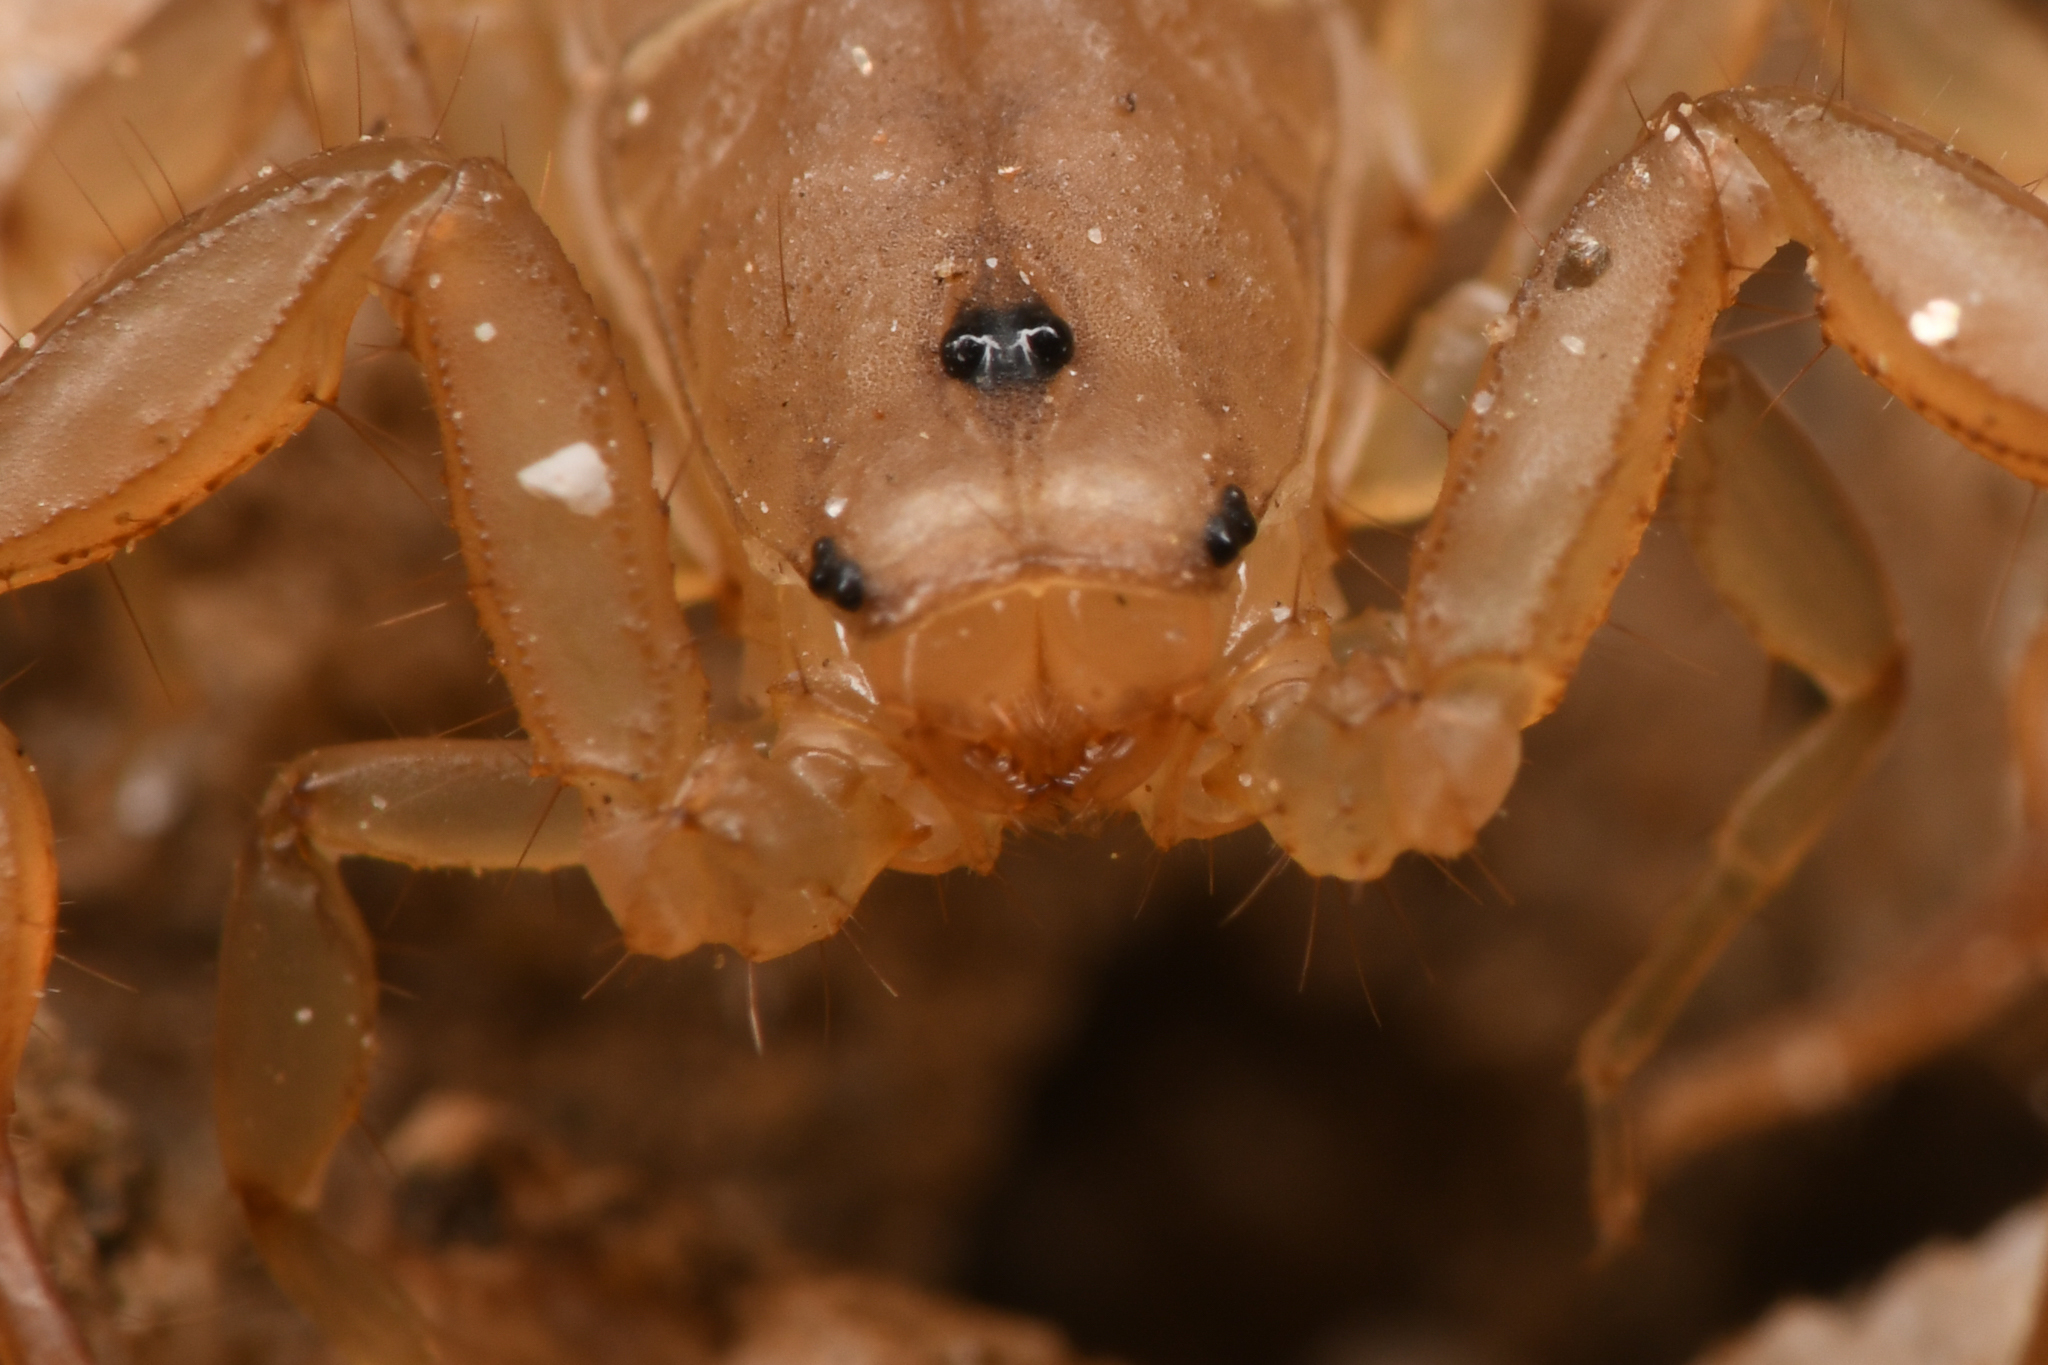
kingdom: Animalia
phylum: Arthropoda
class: Arachnida
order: Scorpiones
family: Vaejovidae
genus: Serradigitus
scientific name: Serradigitus joshuaensis
